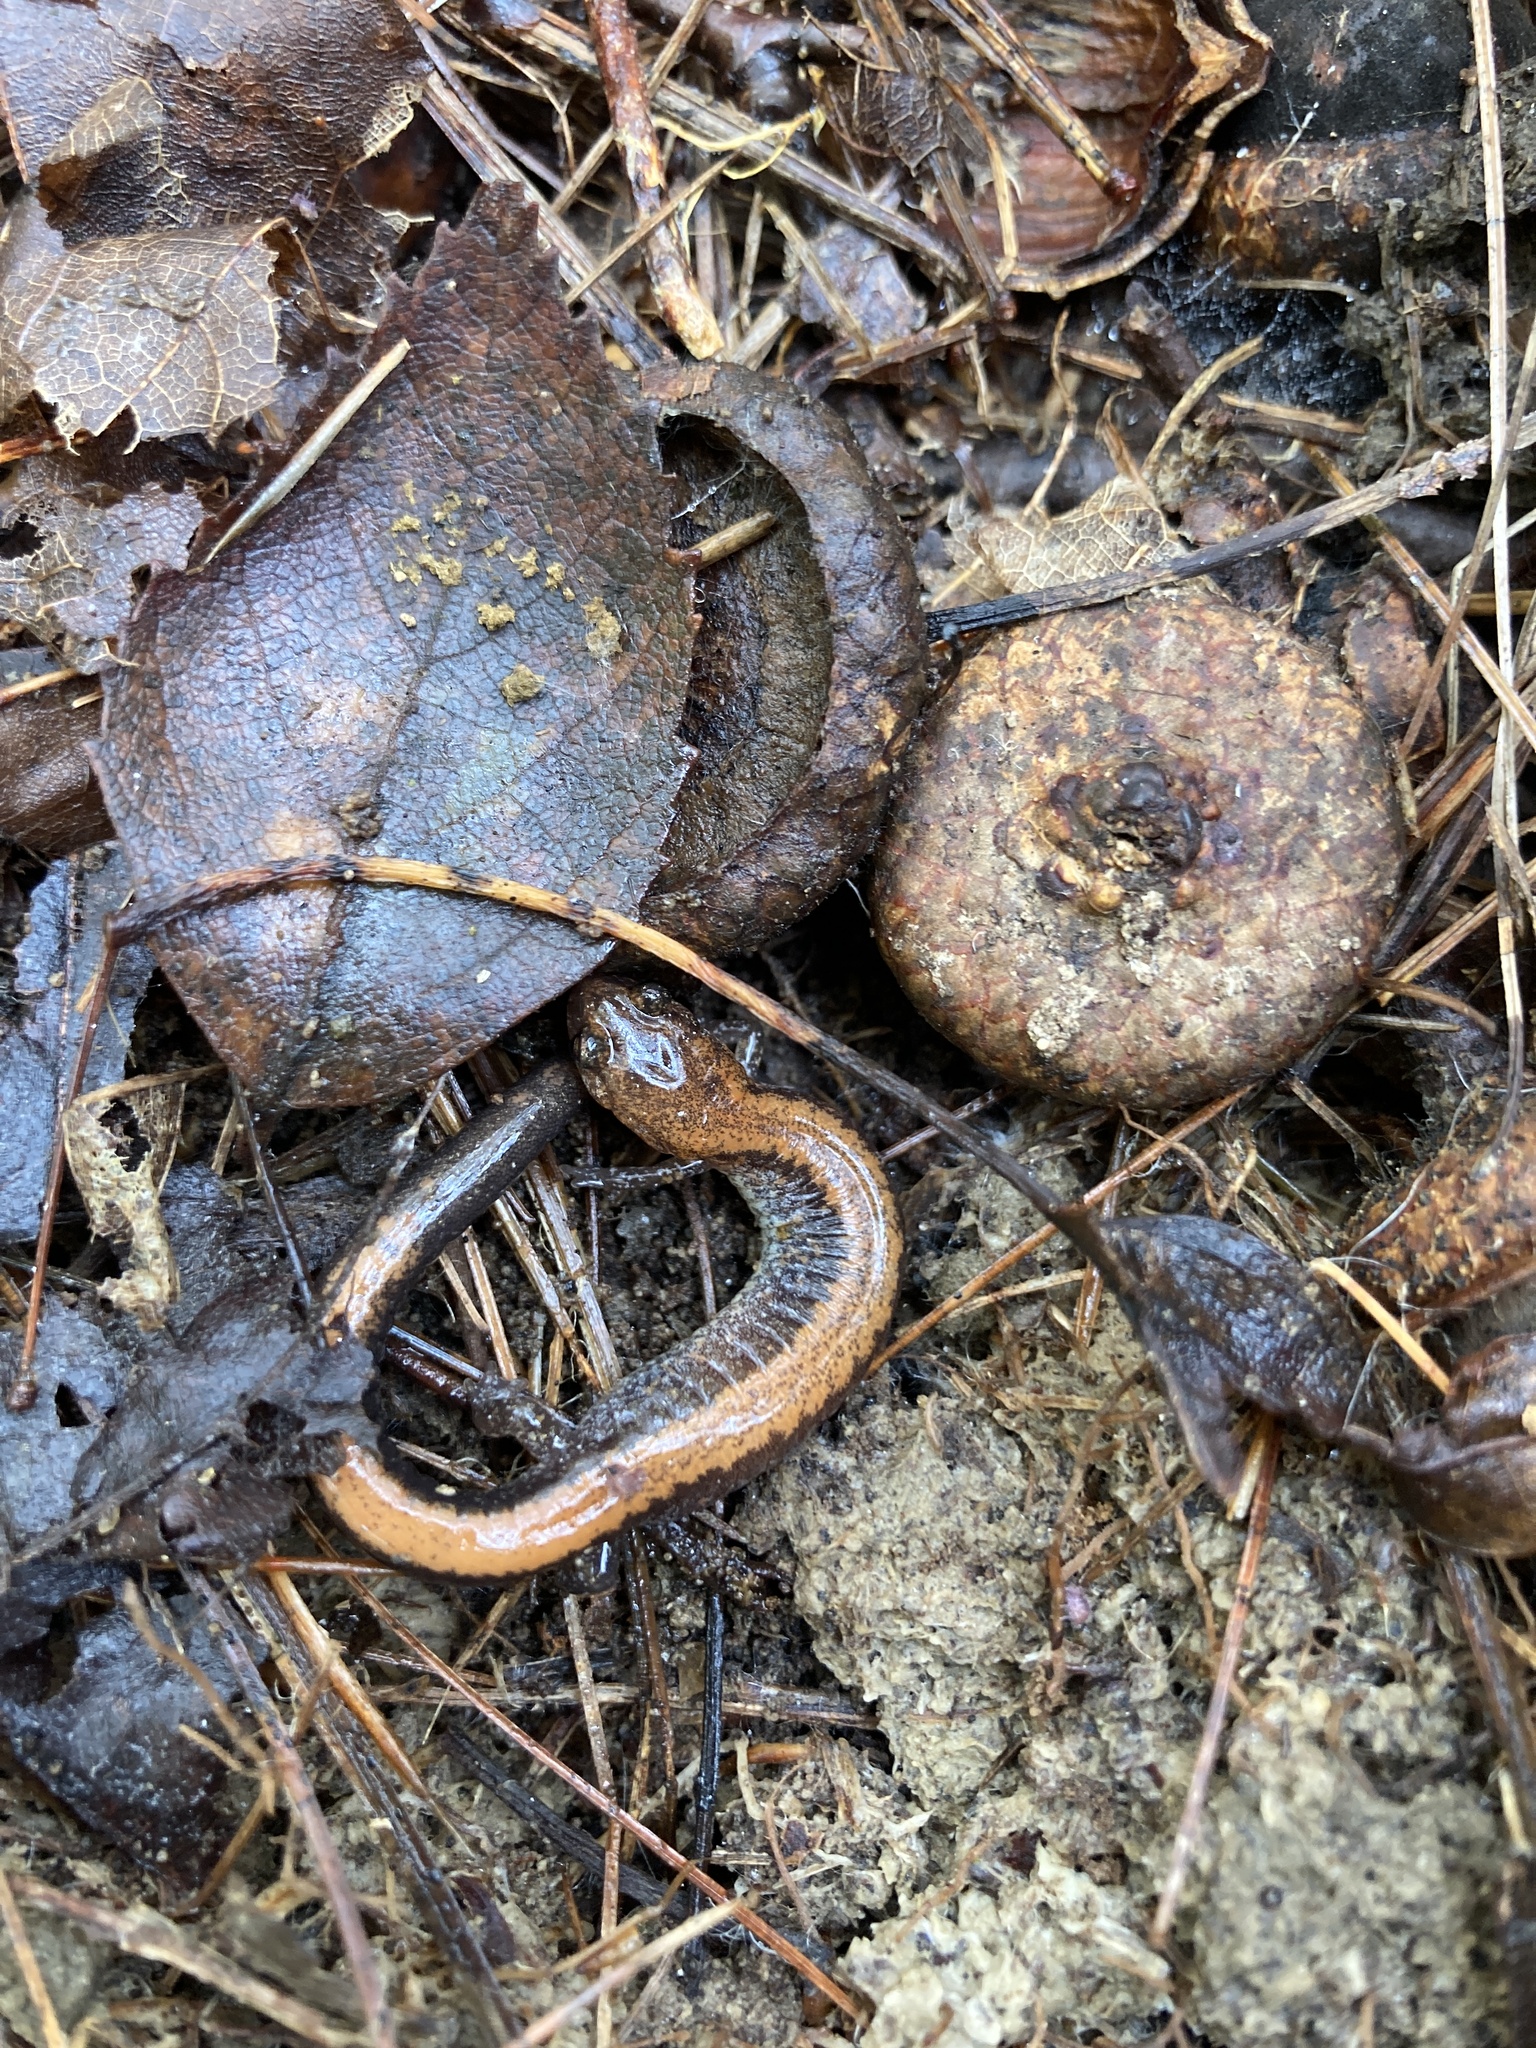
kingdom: Animalia
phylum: Chordata
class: Amphibia
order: Caudata
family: Plethodontidae
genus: Plethodon
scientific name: Plethodon cinereus
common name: Redback salamander
